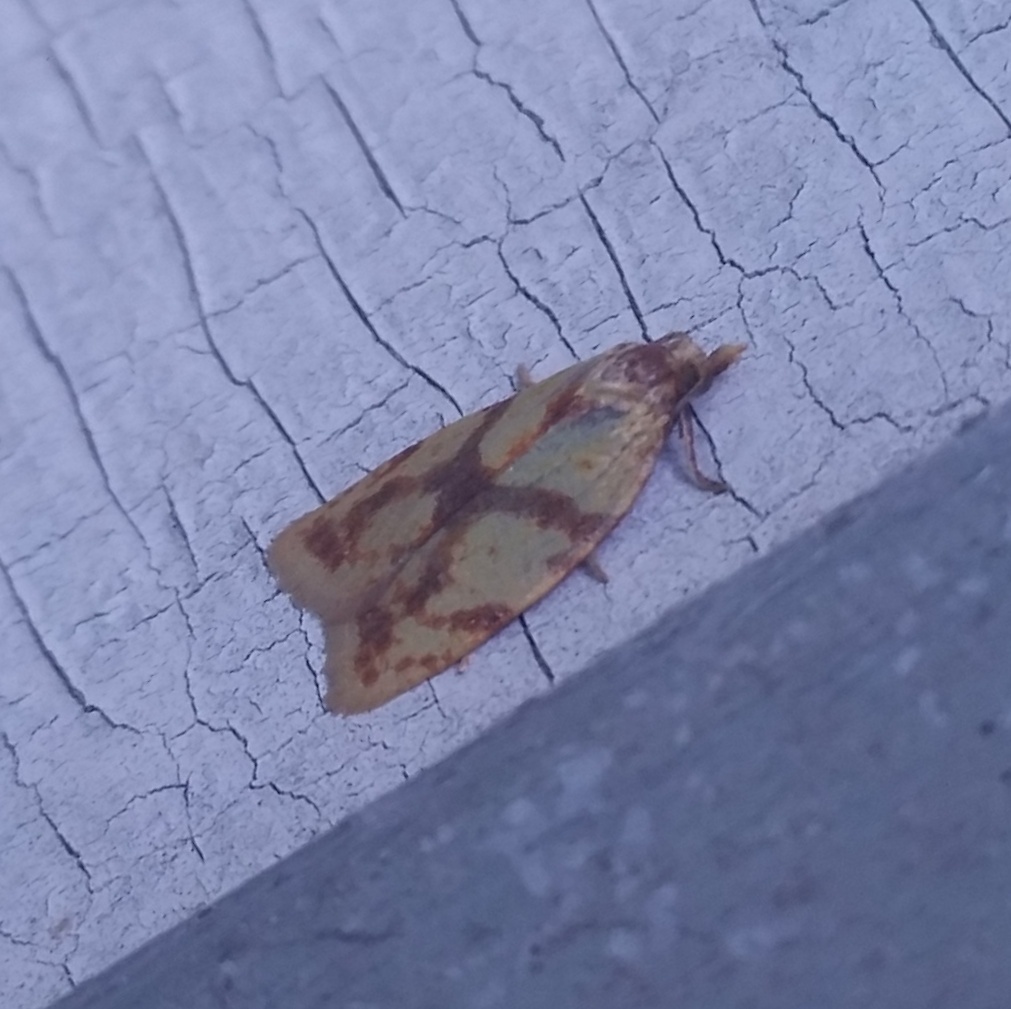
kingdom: Animalia
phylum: Arthropoda
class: Insecta
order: Lepidoptera
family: Tortricidae
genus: Sparganothis
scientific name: Sparganothis sulfureana
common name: Sparganothis fruitworm moth
